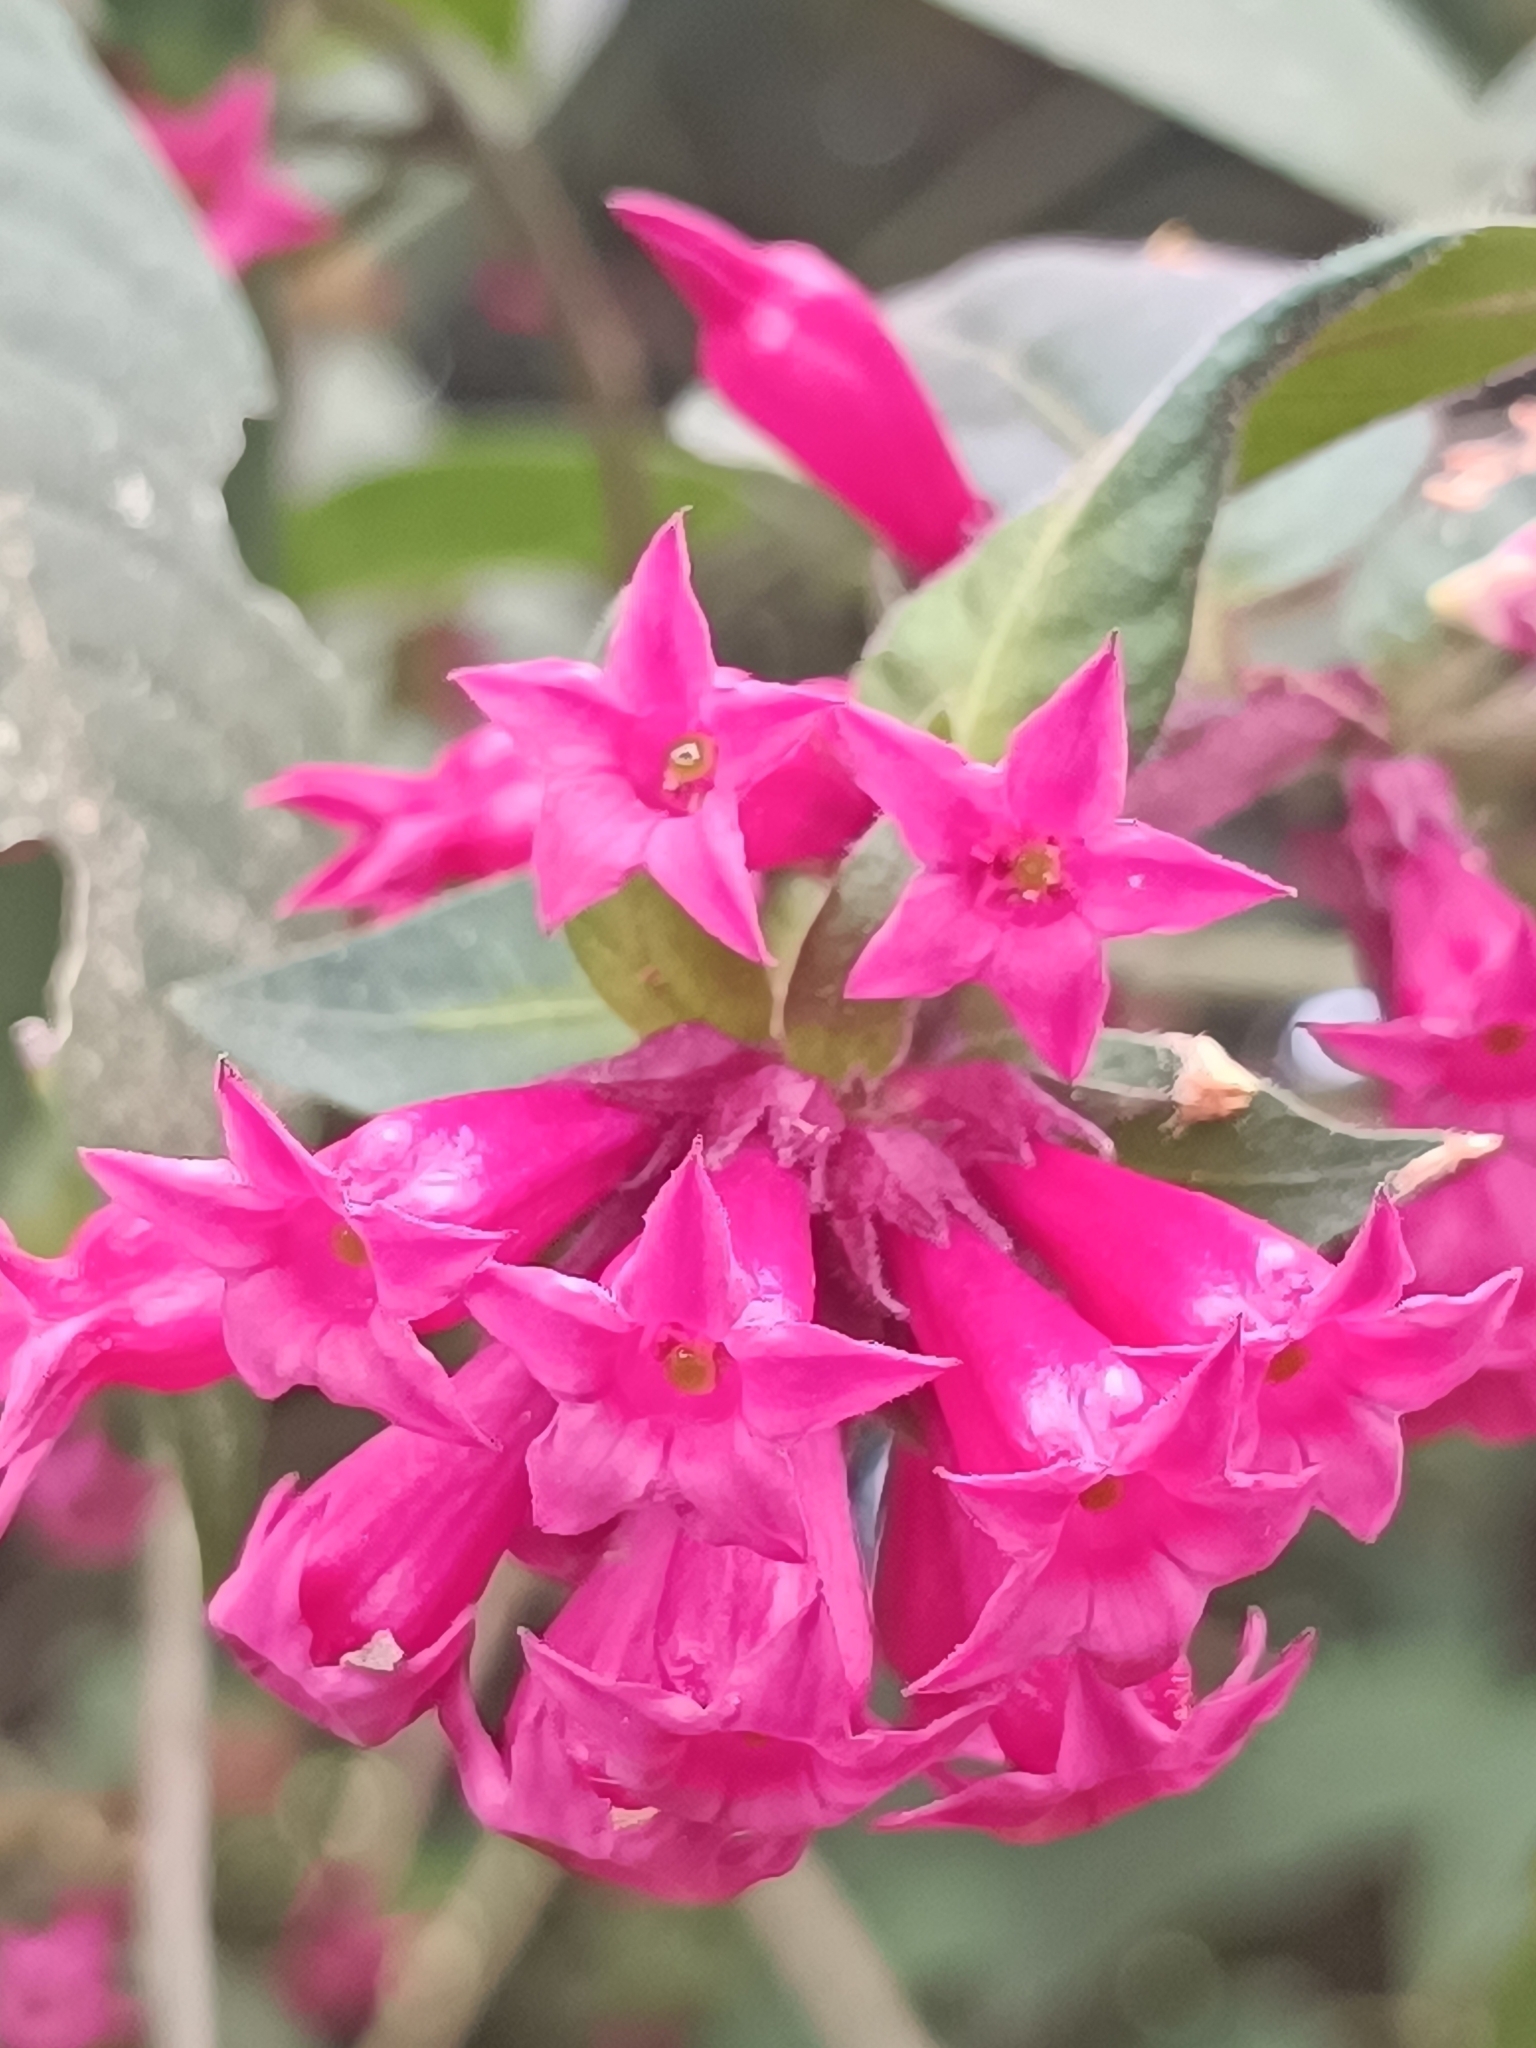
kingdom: Plantae
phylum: Tracheophyta
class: Magnoliopsida
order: Solanales
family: Solanaceae
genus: Cestrum
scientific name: Cestrum elegans
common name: Crimson cestrum
